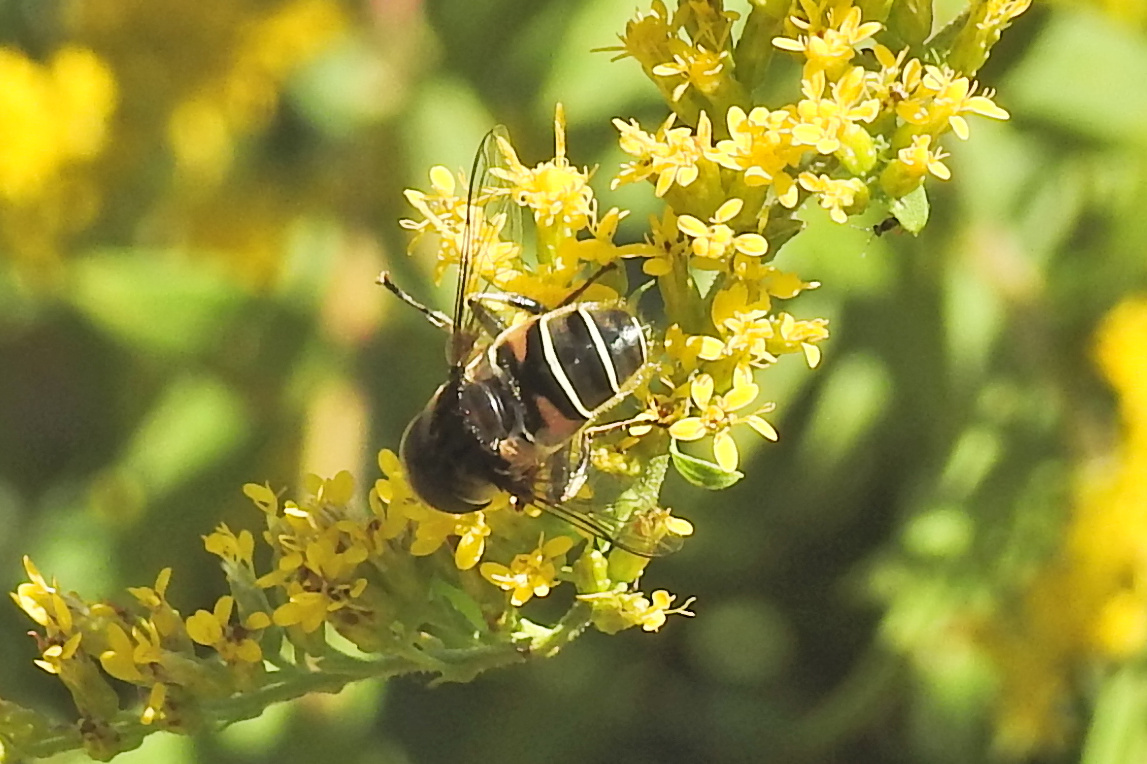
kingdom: Animalia
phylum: Arthropoda
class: Insecta
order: Diptera
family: Syrphidae
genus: Eristalis
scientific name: Eristalis dimidiata
